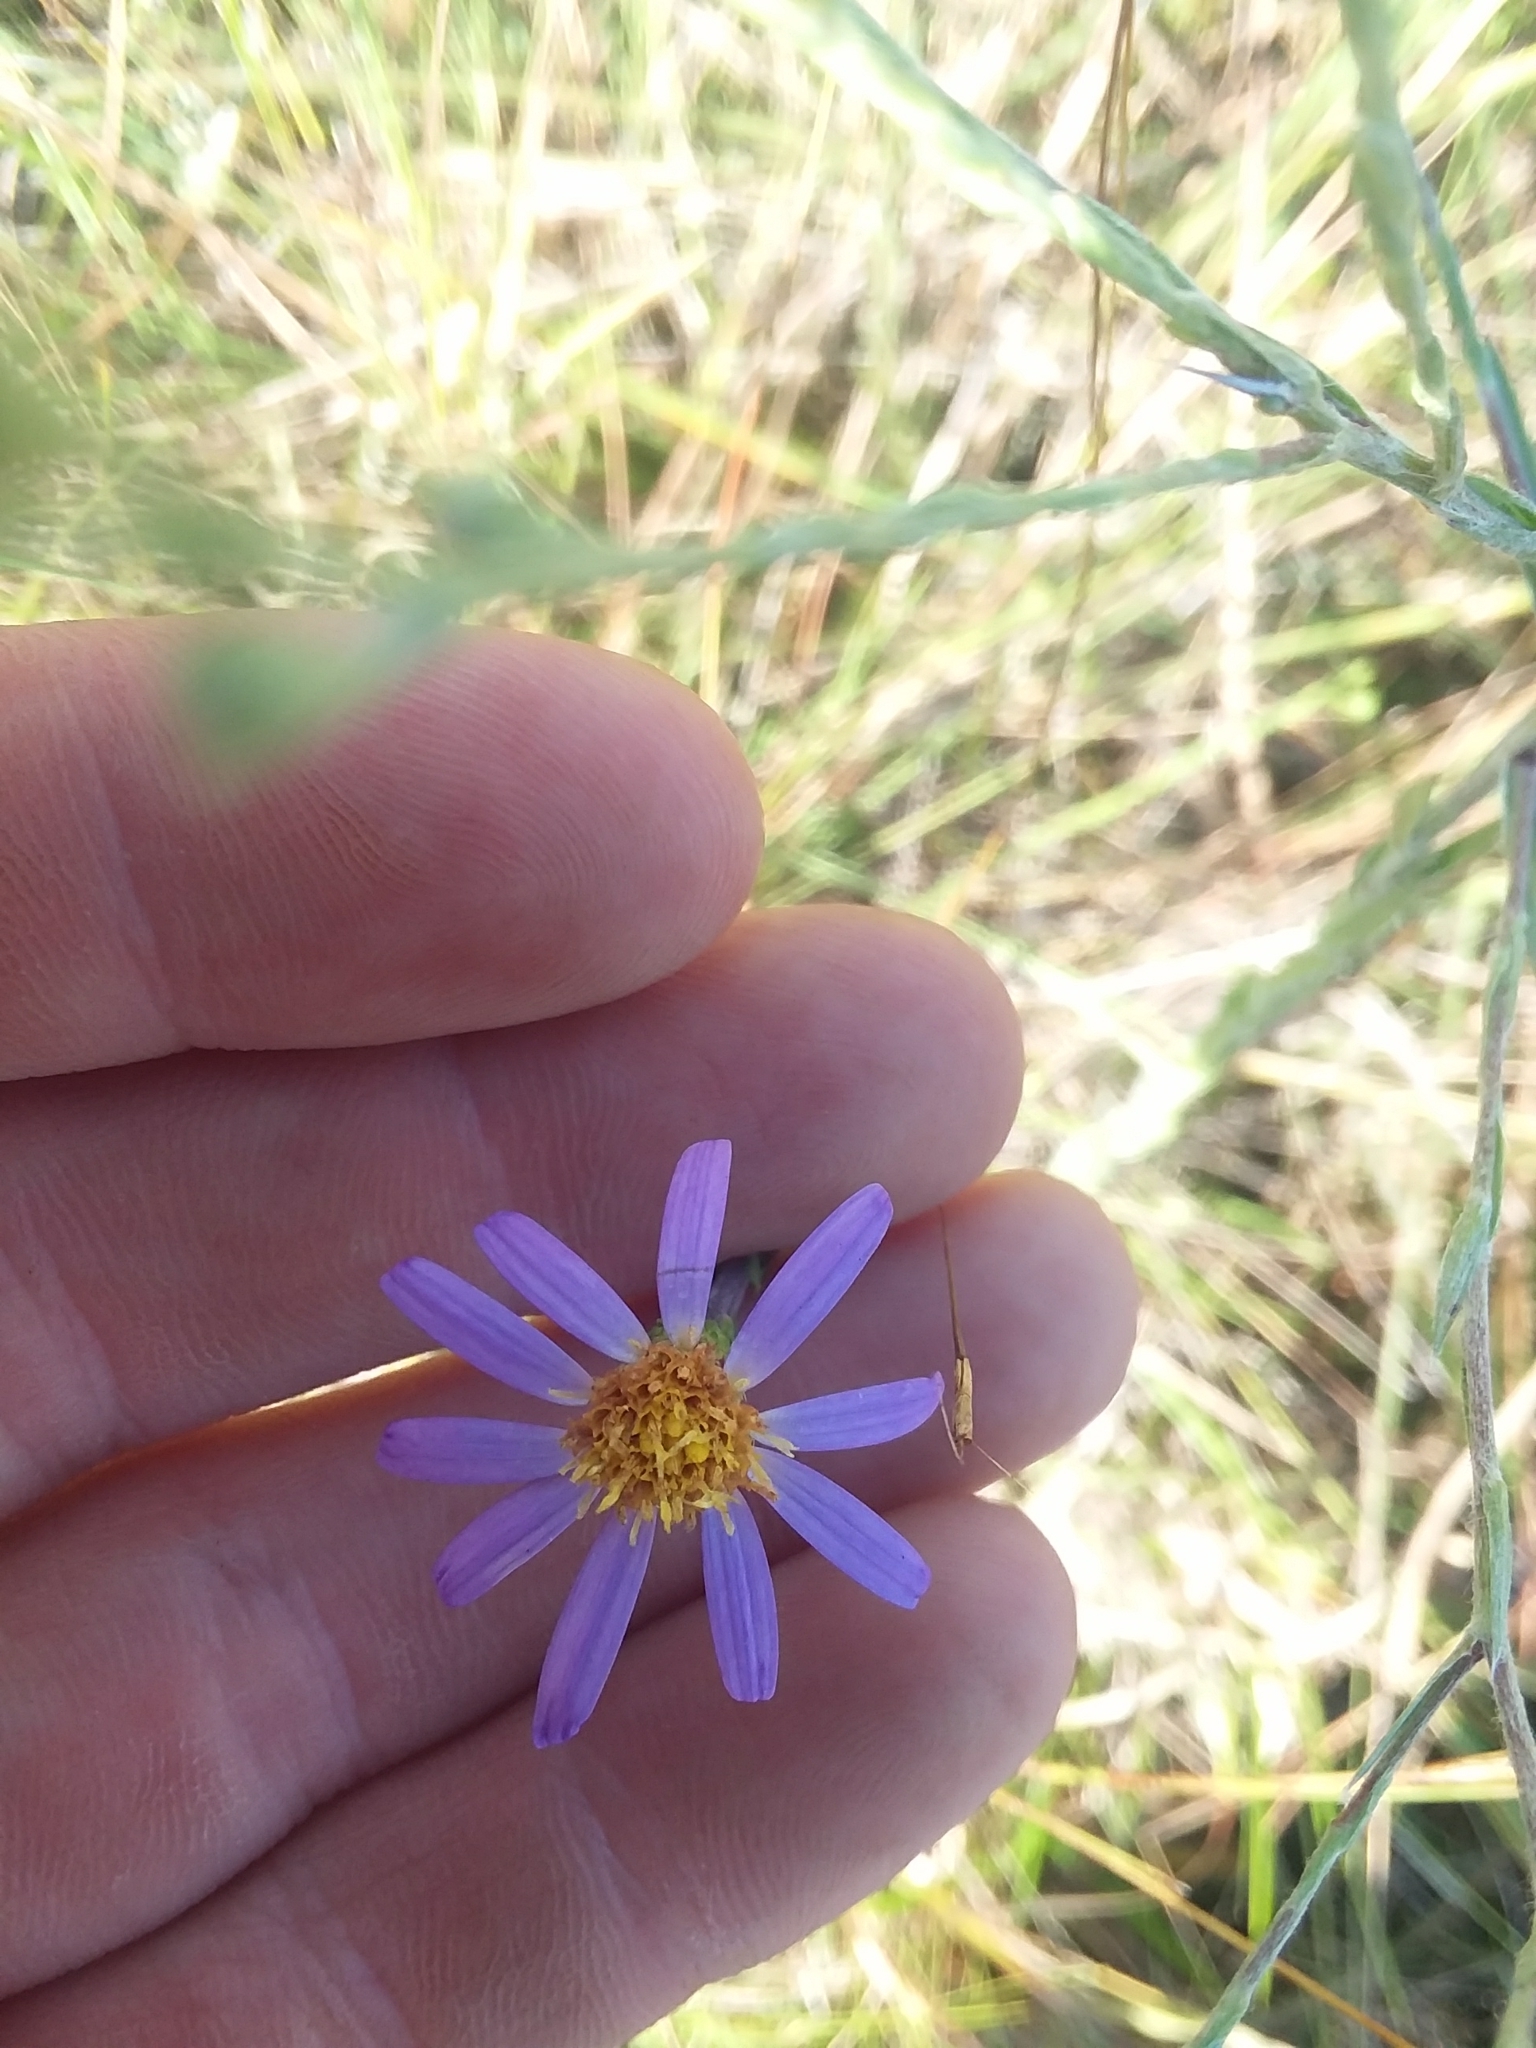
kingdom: Plantae
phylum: Tracheophyta
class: Magnoliopsida
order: Asterales
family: Asteraceae
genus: Ionactis
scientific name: Ionactis repens
